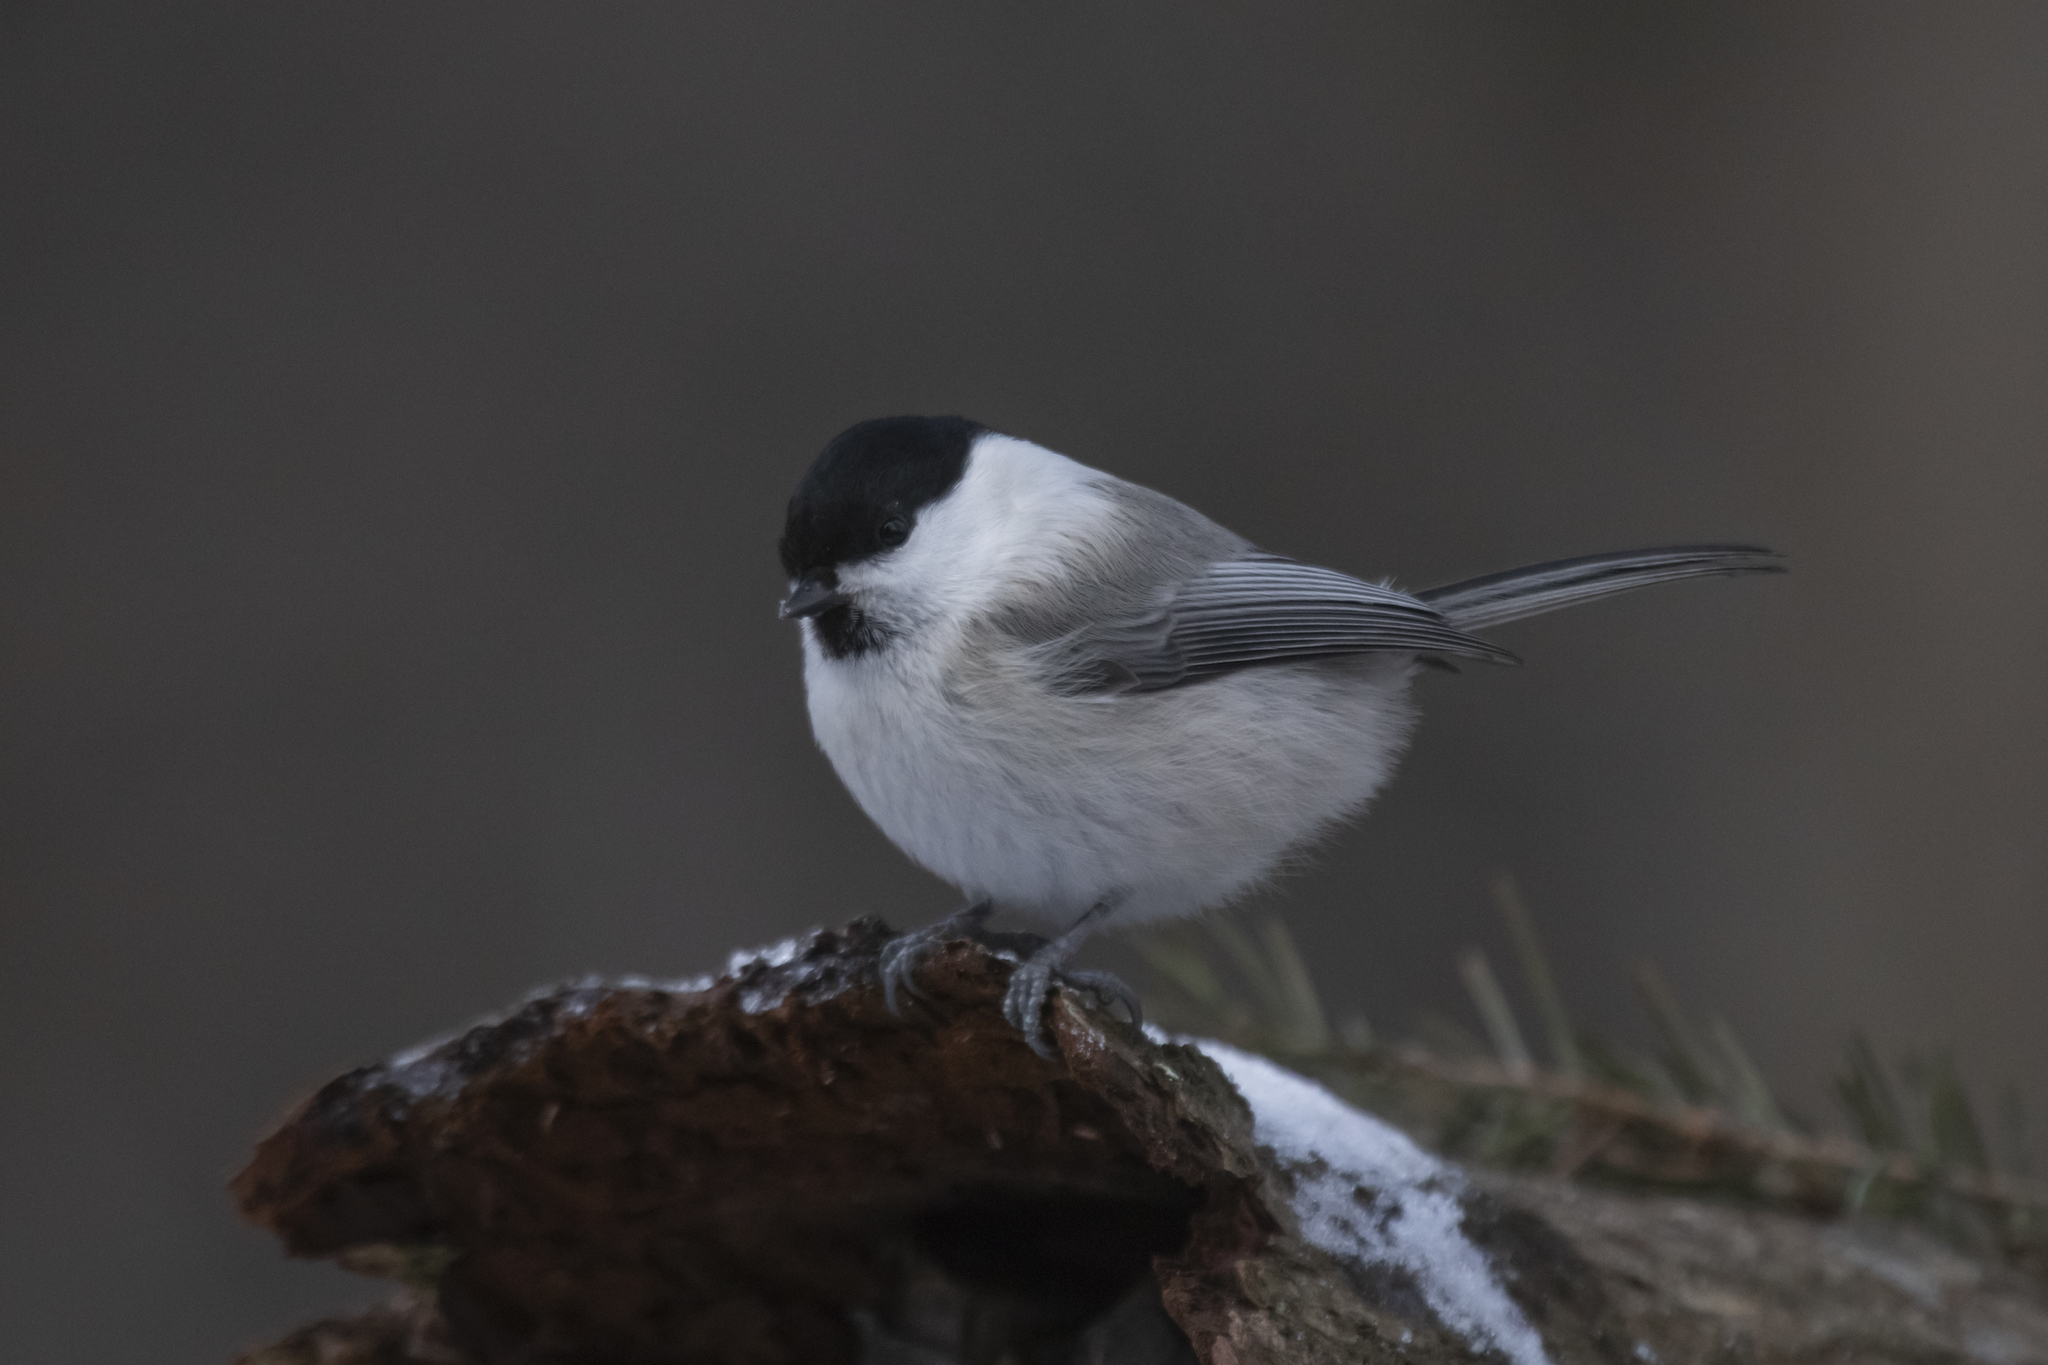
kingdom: Animalia
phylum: Chordata
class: Aves
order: Passeriformes
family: Paridae
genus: Poecile
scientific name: Poecile montanus
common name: Willow tit
